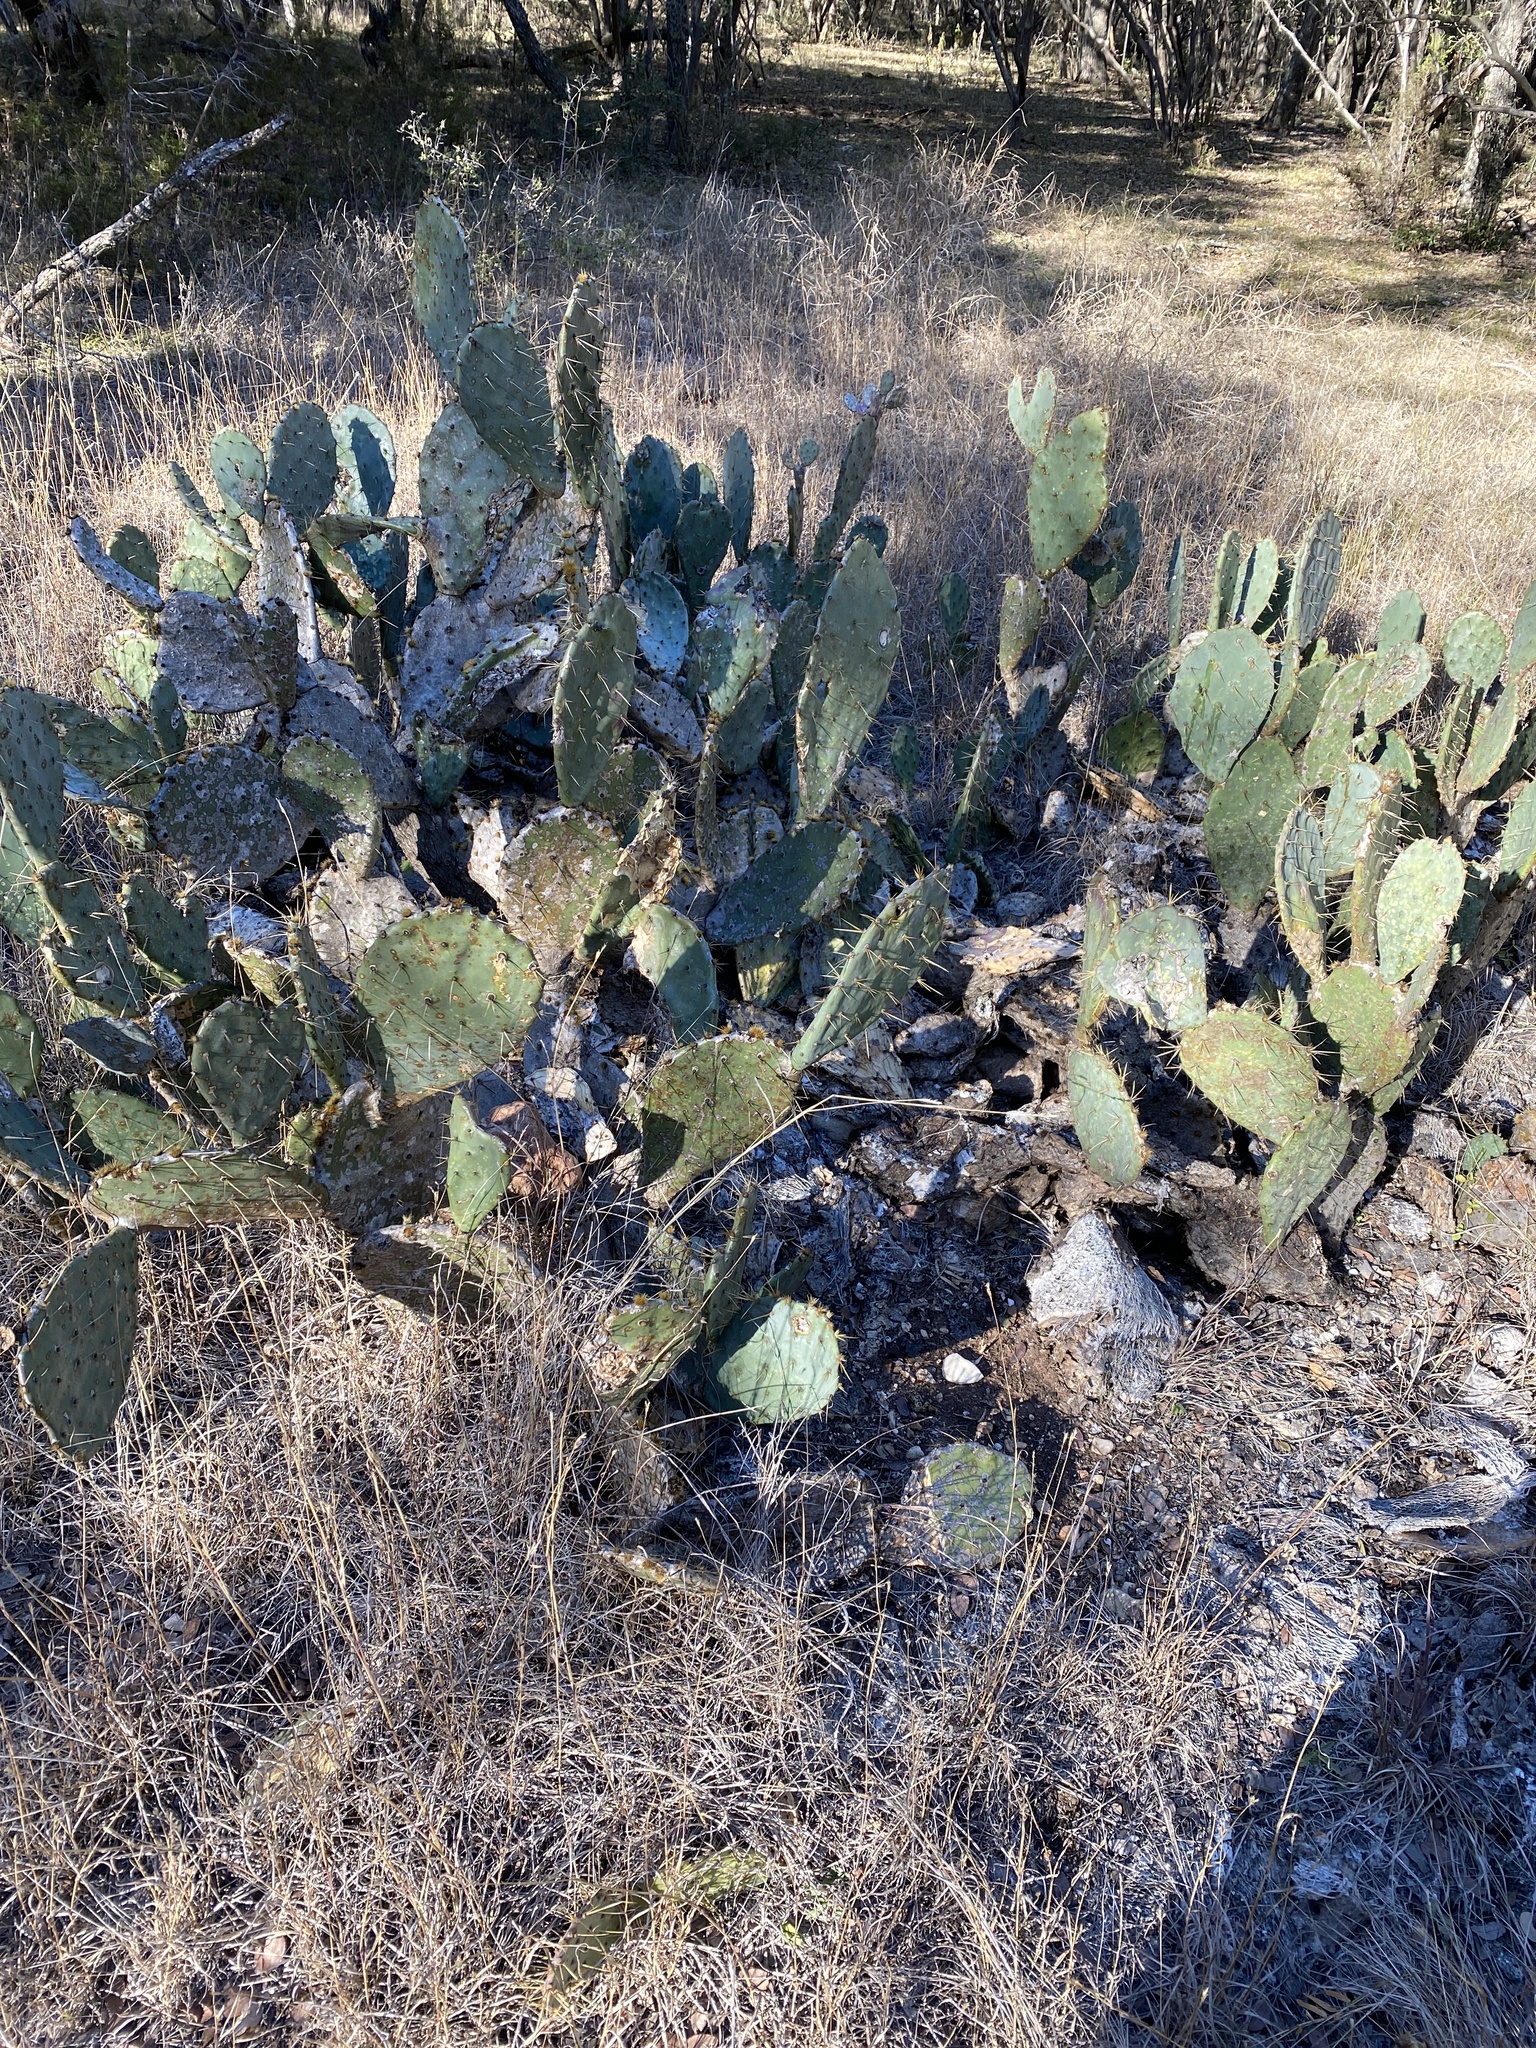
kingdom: Plantae
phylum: Tracheophyta
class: Magnoliopsida
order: Caryophyllales
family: Cactaceae
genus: Opuntia
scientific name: Opuntia engelmannii
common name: Cactus-apple
